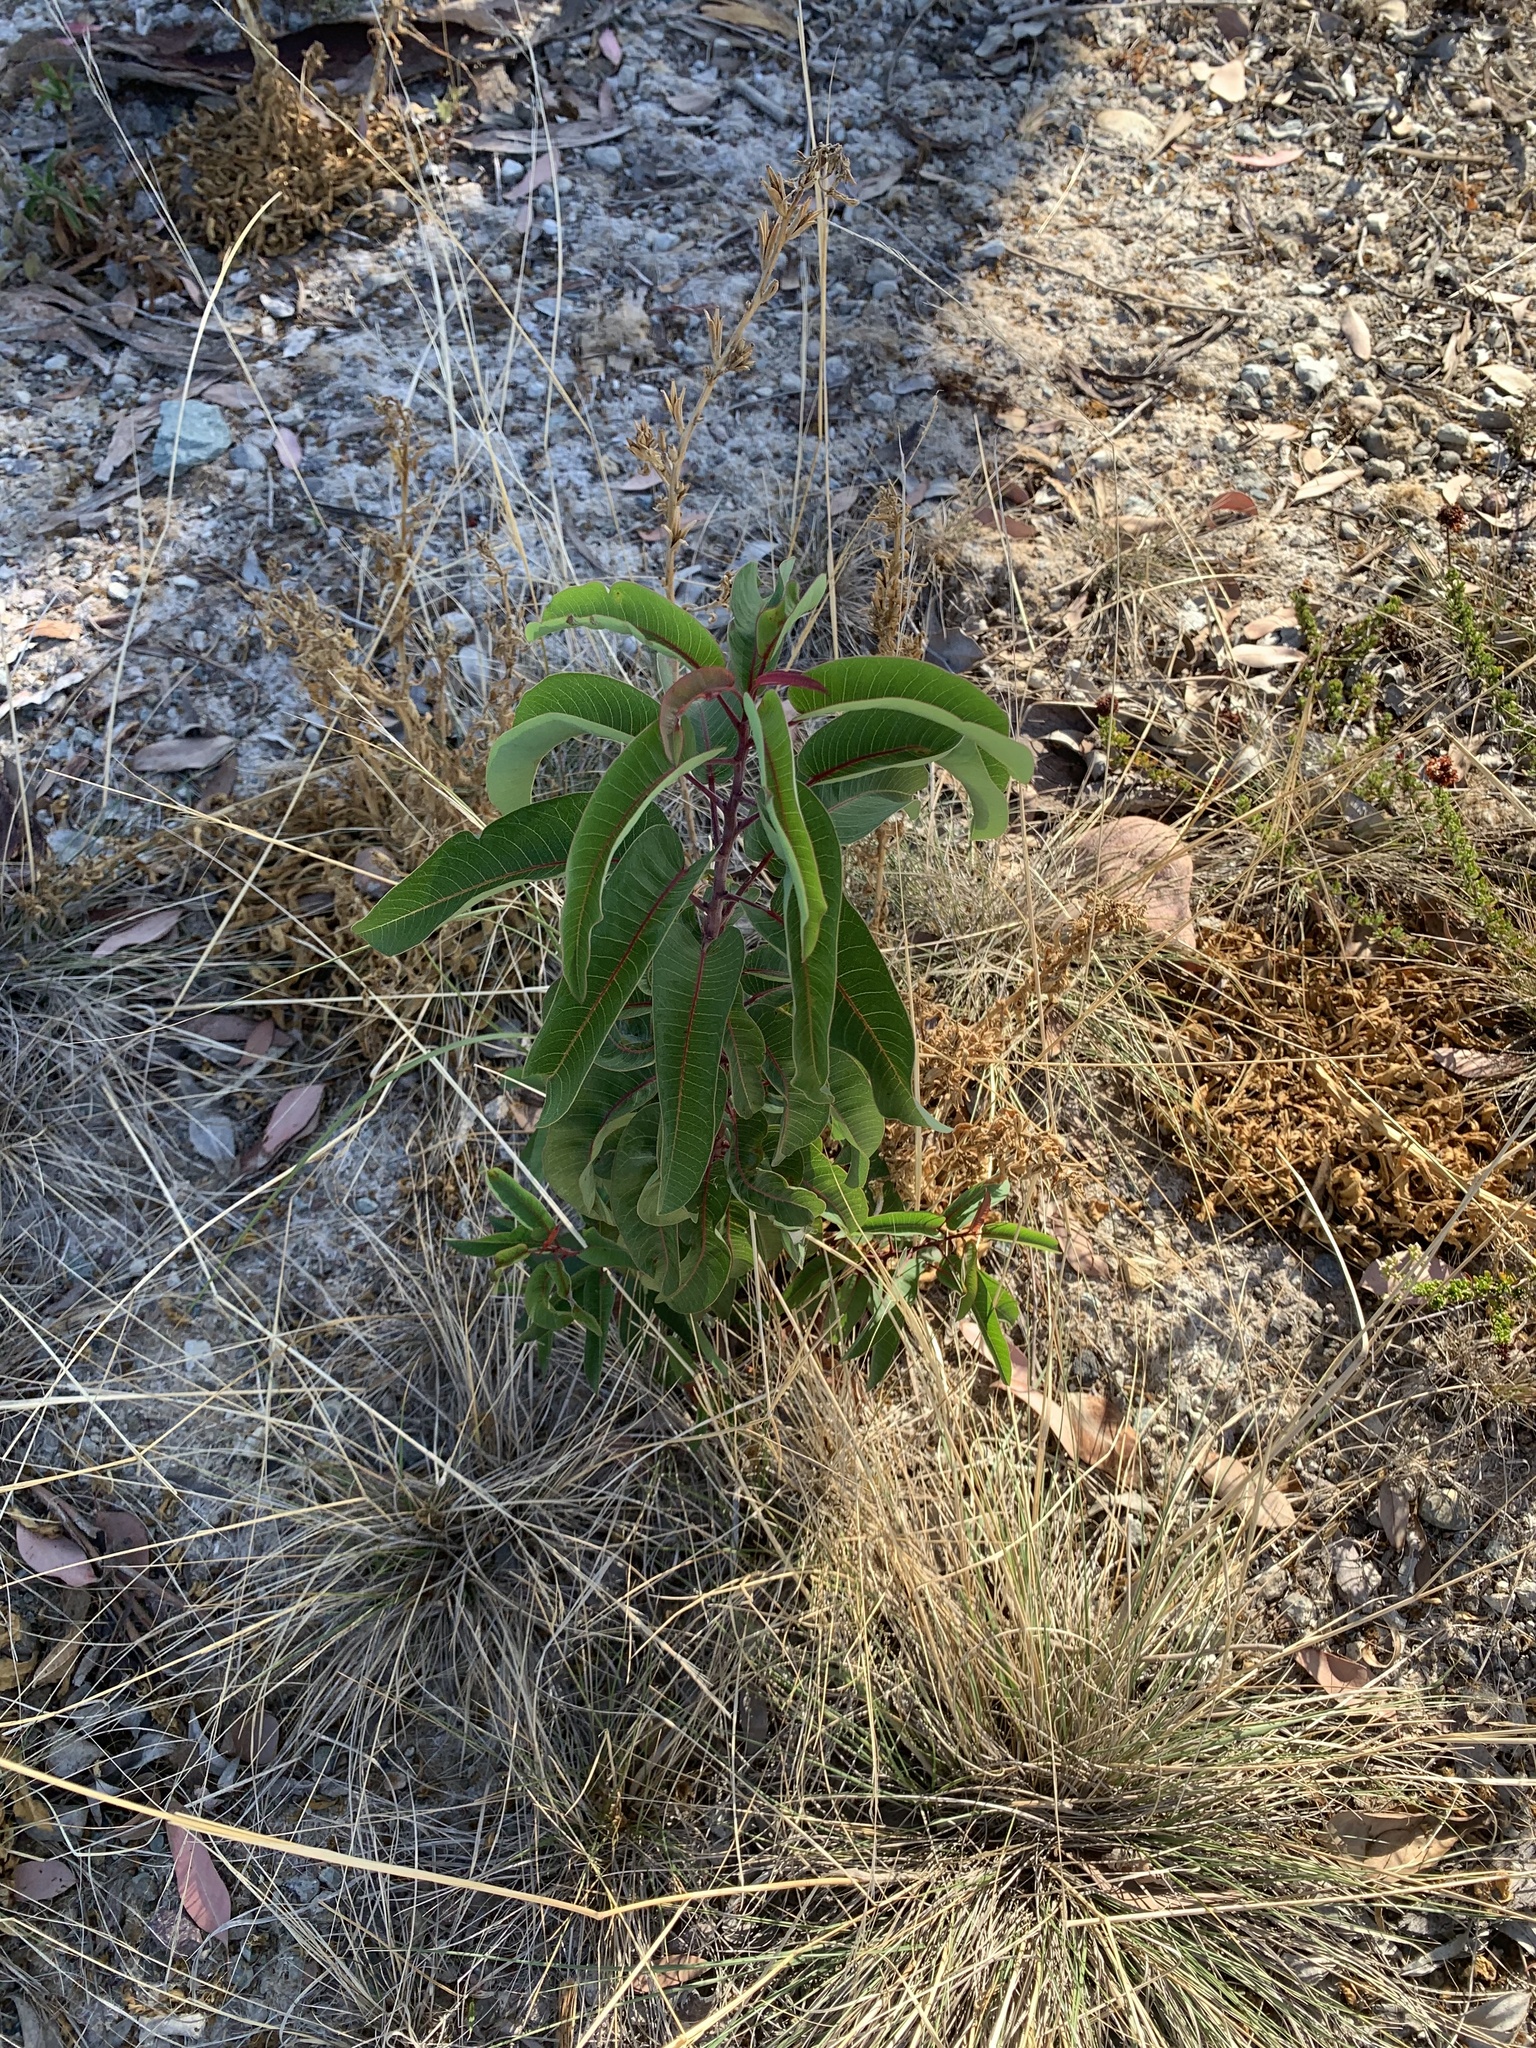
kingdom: Plantae
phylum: Tracheophyta
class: Magnoliopsida
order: Sapindales
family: Anacardiaceae
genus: Malosma
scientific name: Malosma laurina
